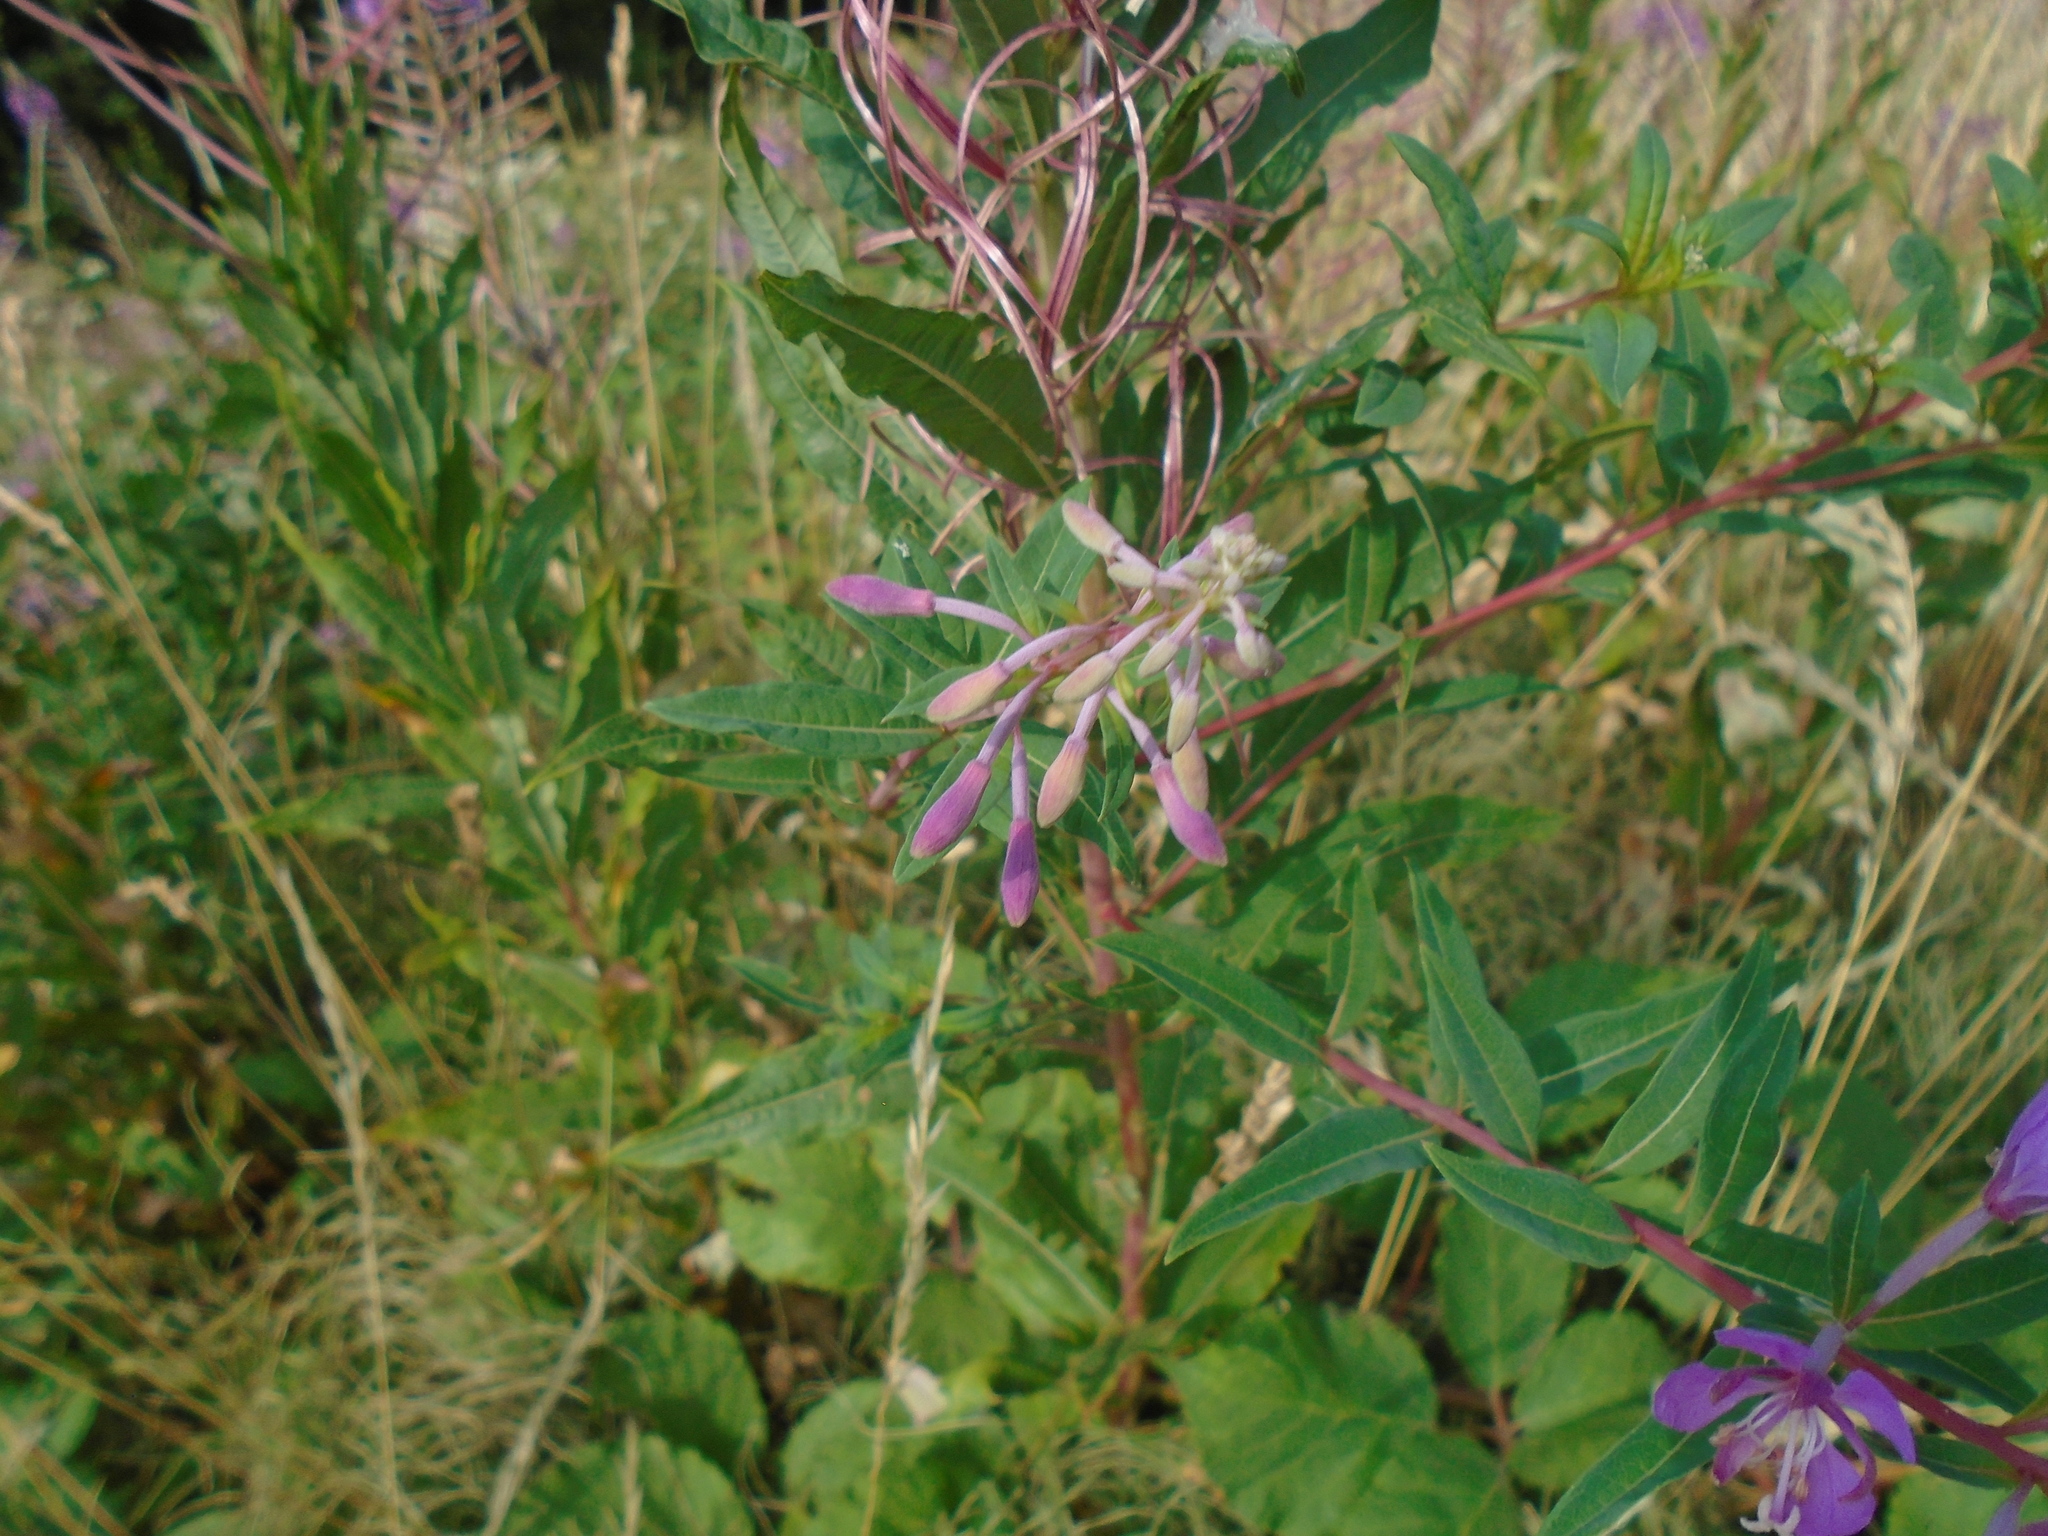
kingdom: Plantae
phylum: Tracheophyta
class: Magnoliopsida
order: Myrtales
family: Onagraceae
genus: Chamaenerion
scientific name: Chamaenerion angustifolium
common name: Fireweed
